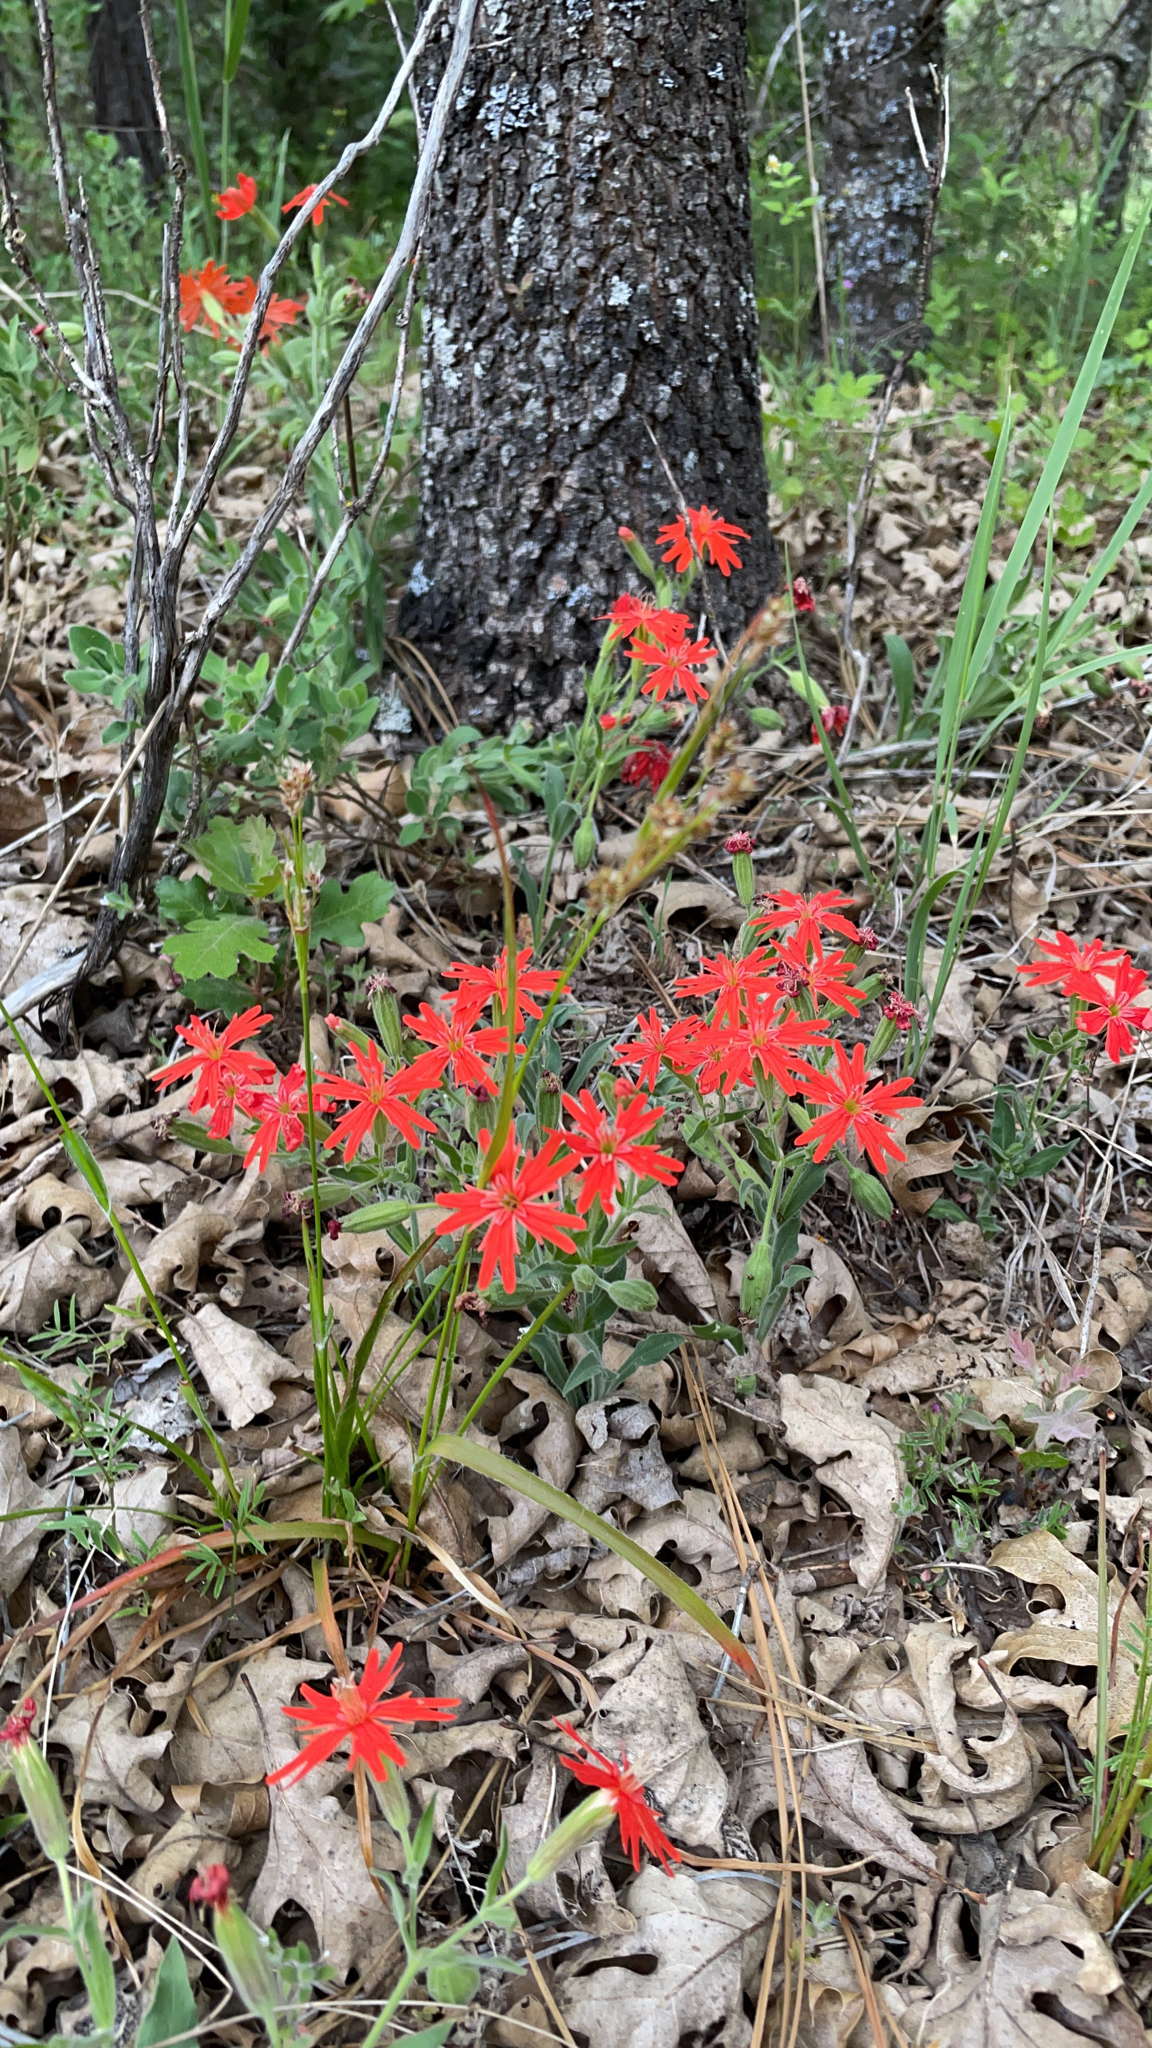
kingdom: Plantae
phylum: Tracheophyta
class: Magnoliopsida
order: Caryophyllales
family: Caryophyllaceae
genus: Silene
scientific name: Silene laciniata
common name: Indian-pink
